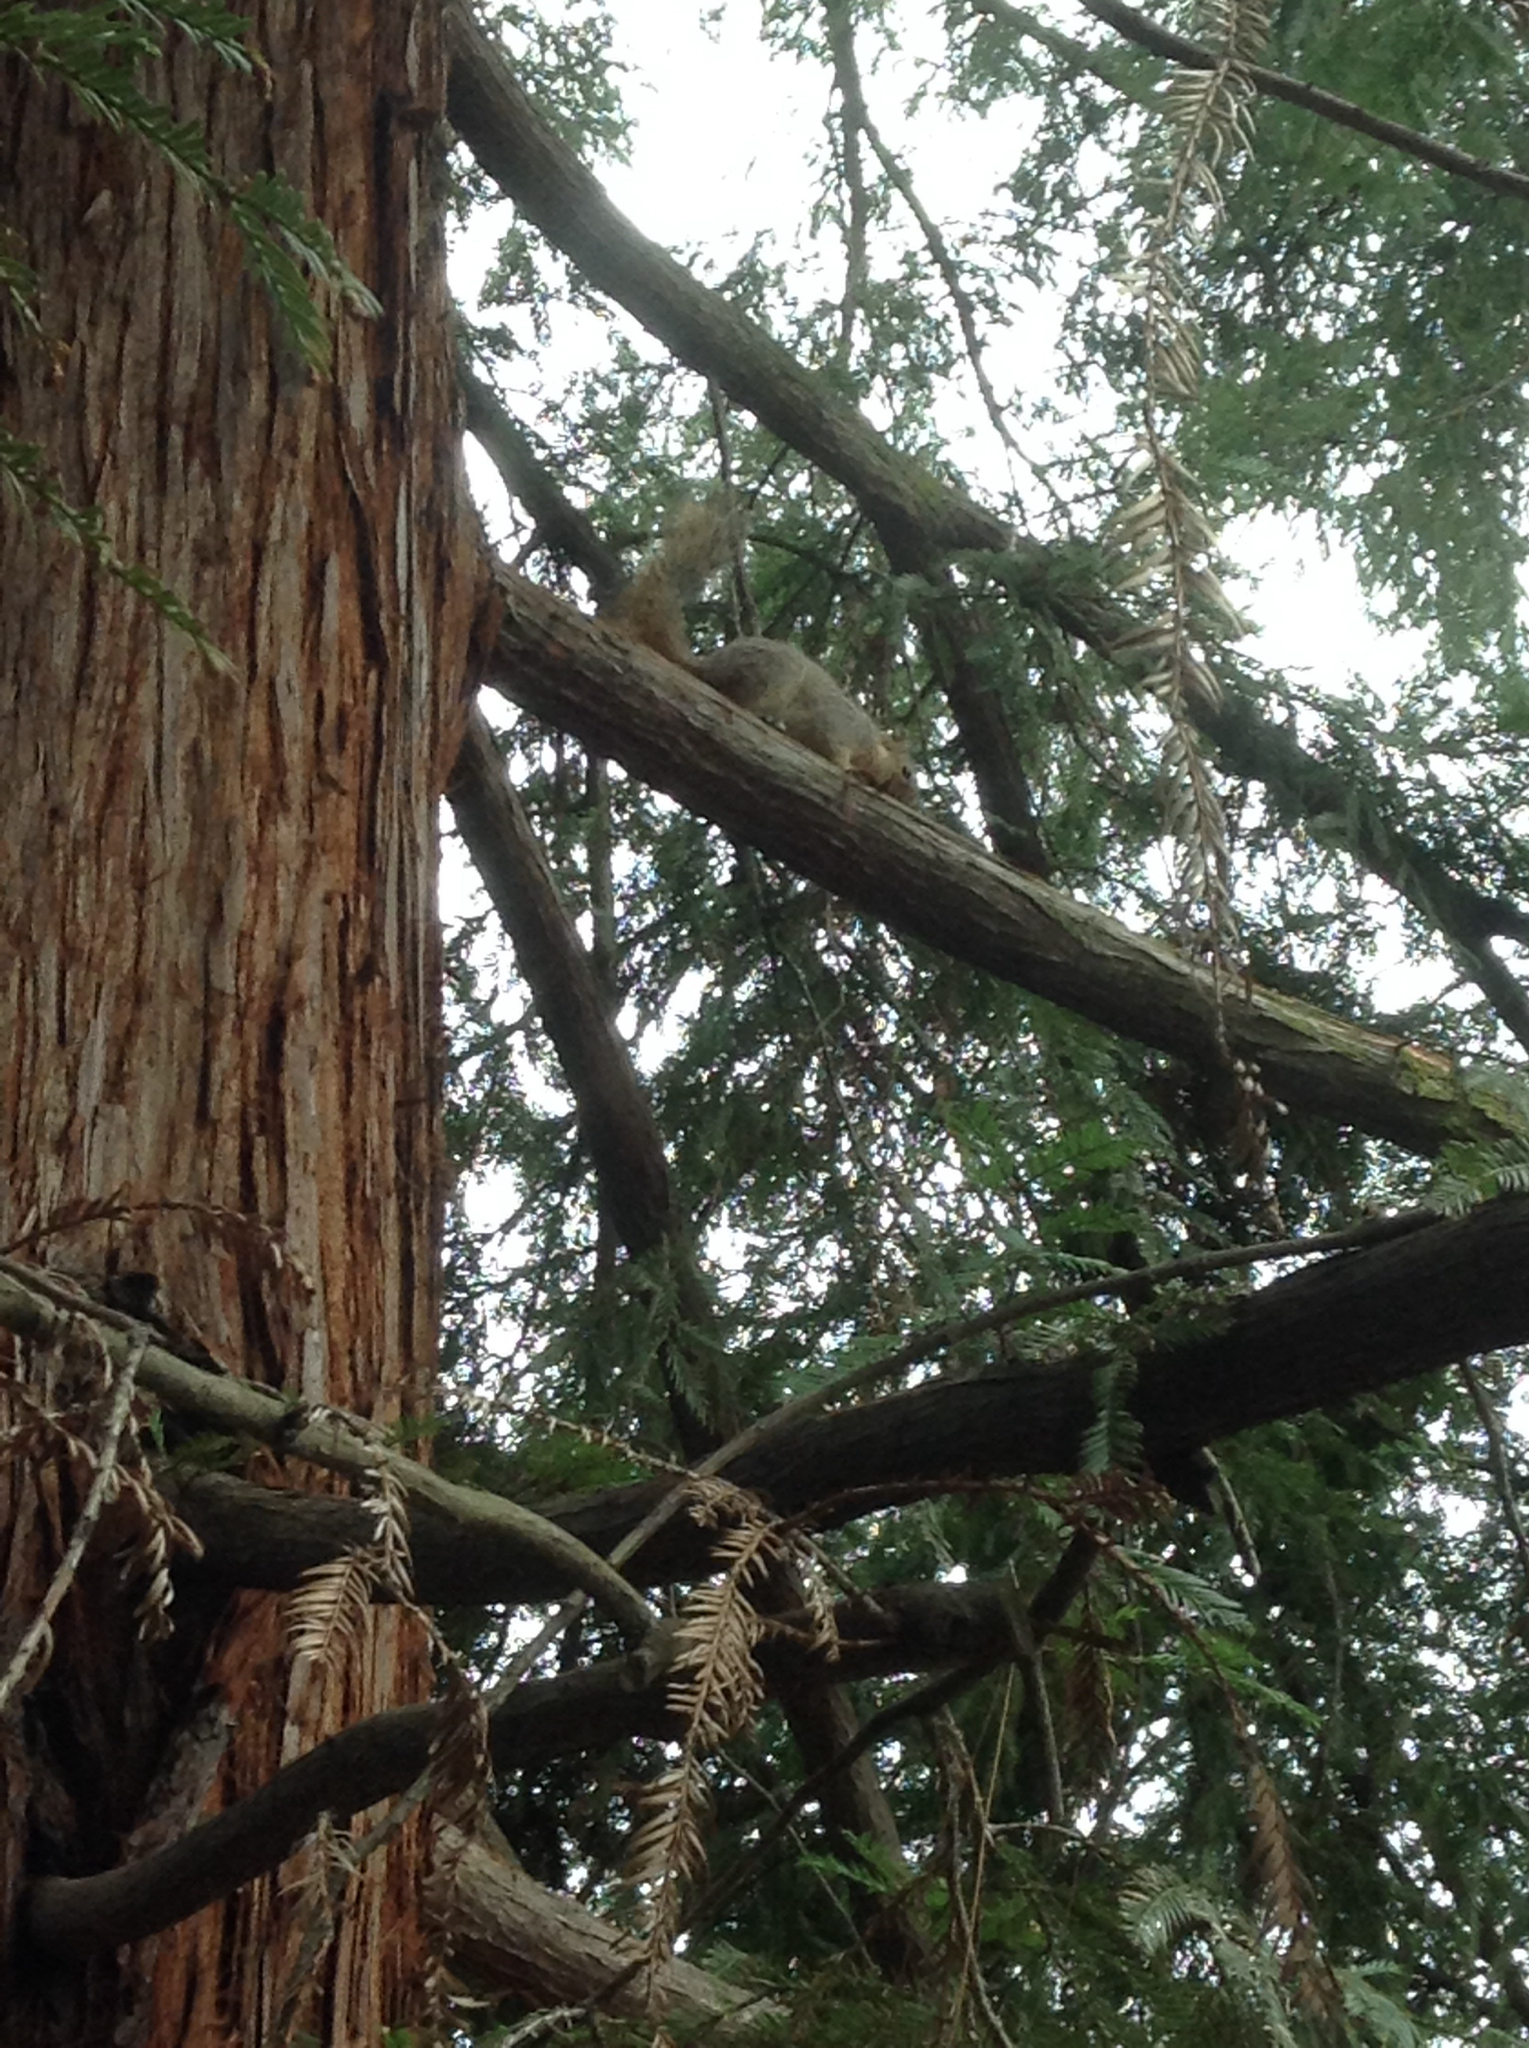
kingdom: Animalia
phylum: Chordata
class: Mammalia
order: Rodentia
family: Sciuridae
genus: Sciurus
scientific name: Sciurus niger
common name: Fox squirrel
